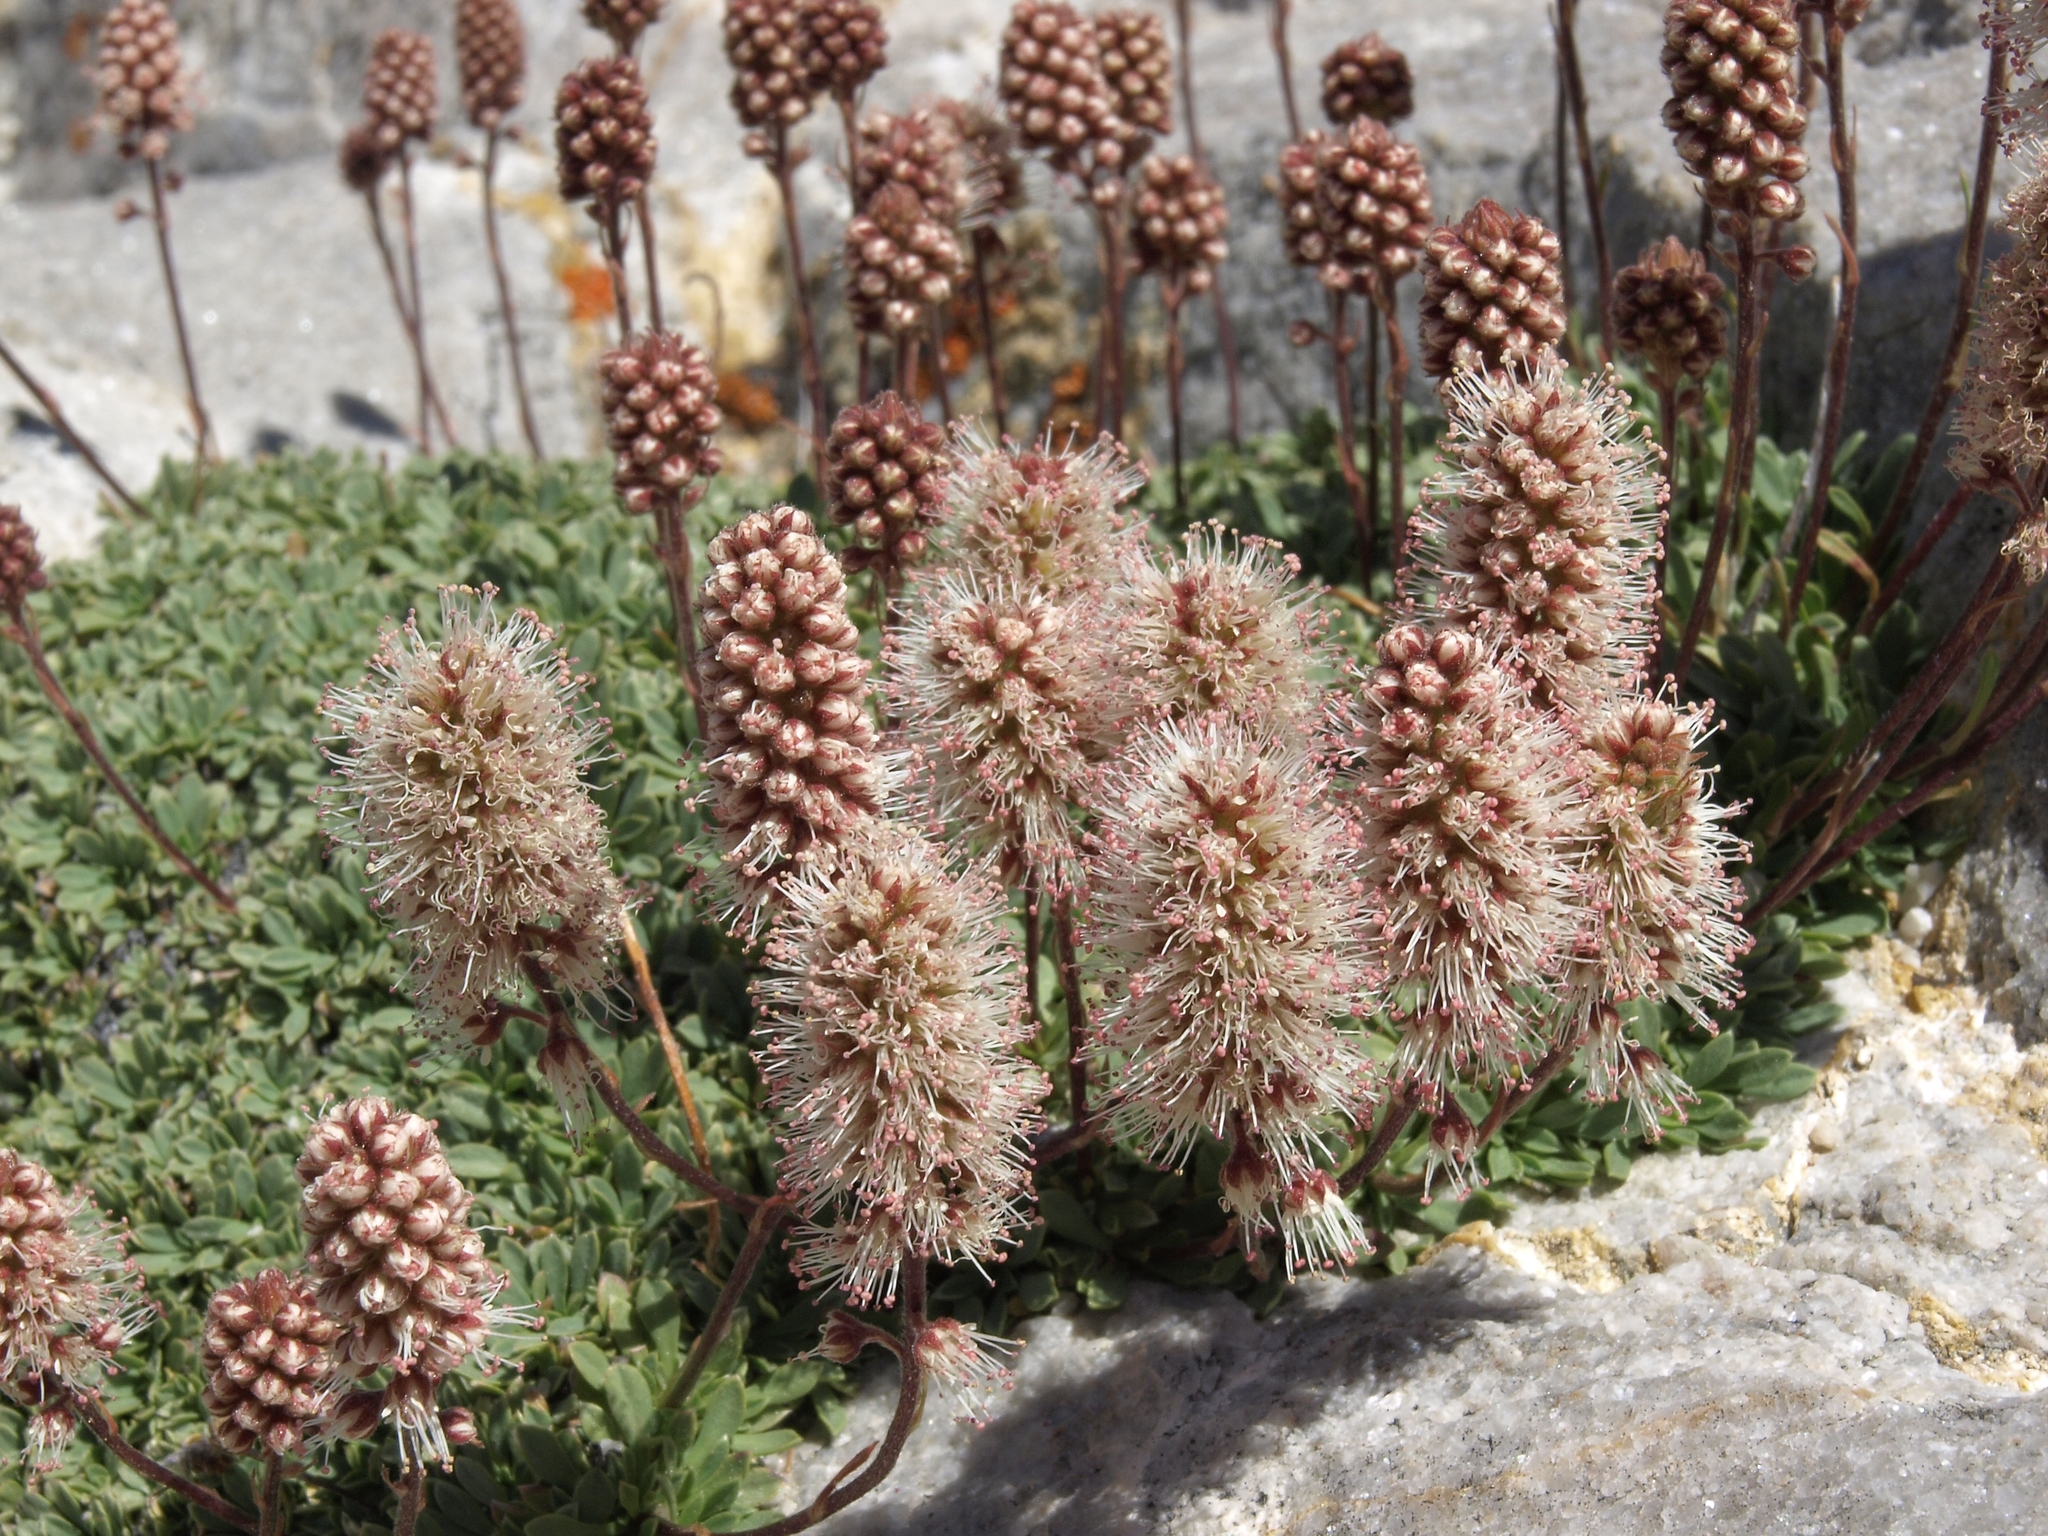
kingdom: Plantae
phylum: Tracheophyta
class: Magnoliopsida
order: Rosales
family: Rosaceae
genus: Petrophytum
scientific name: Petrophytum caespitosum
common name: Mat rockspirea
